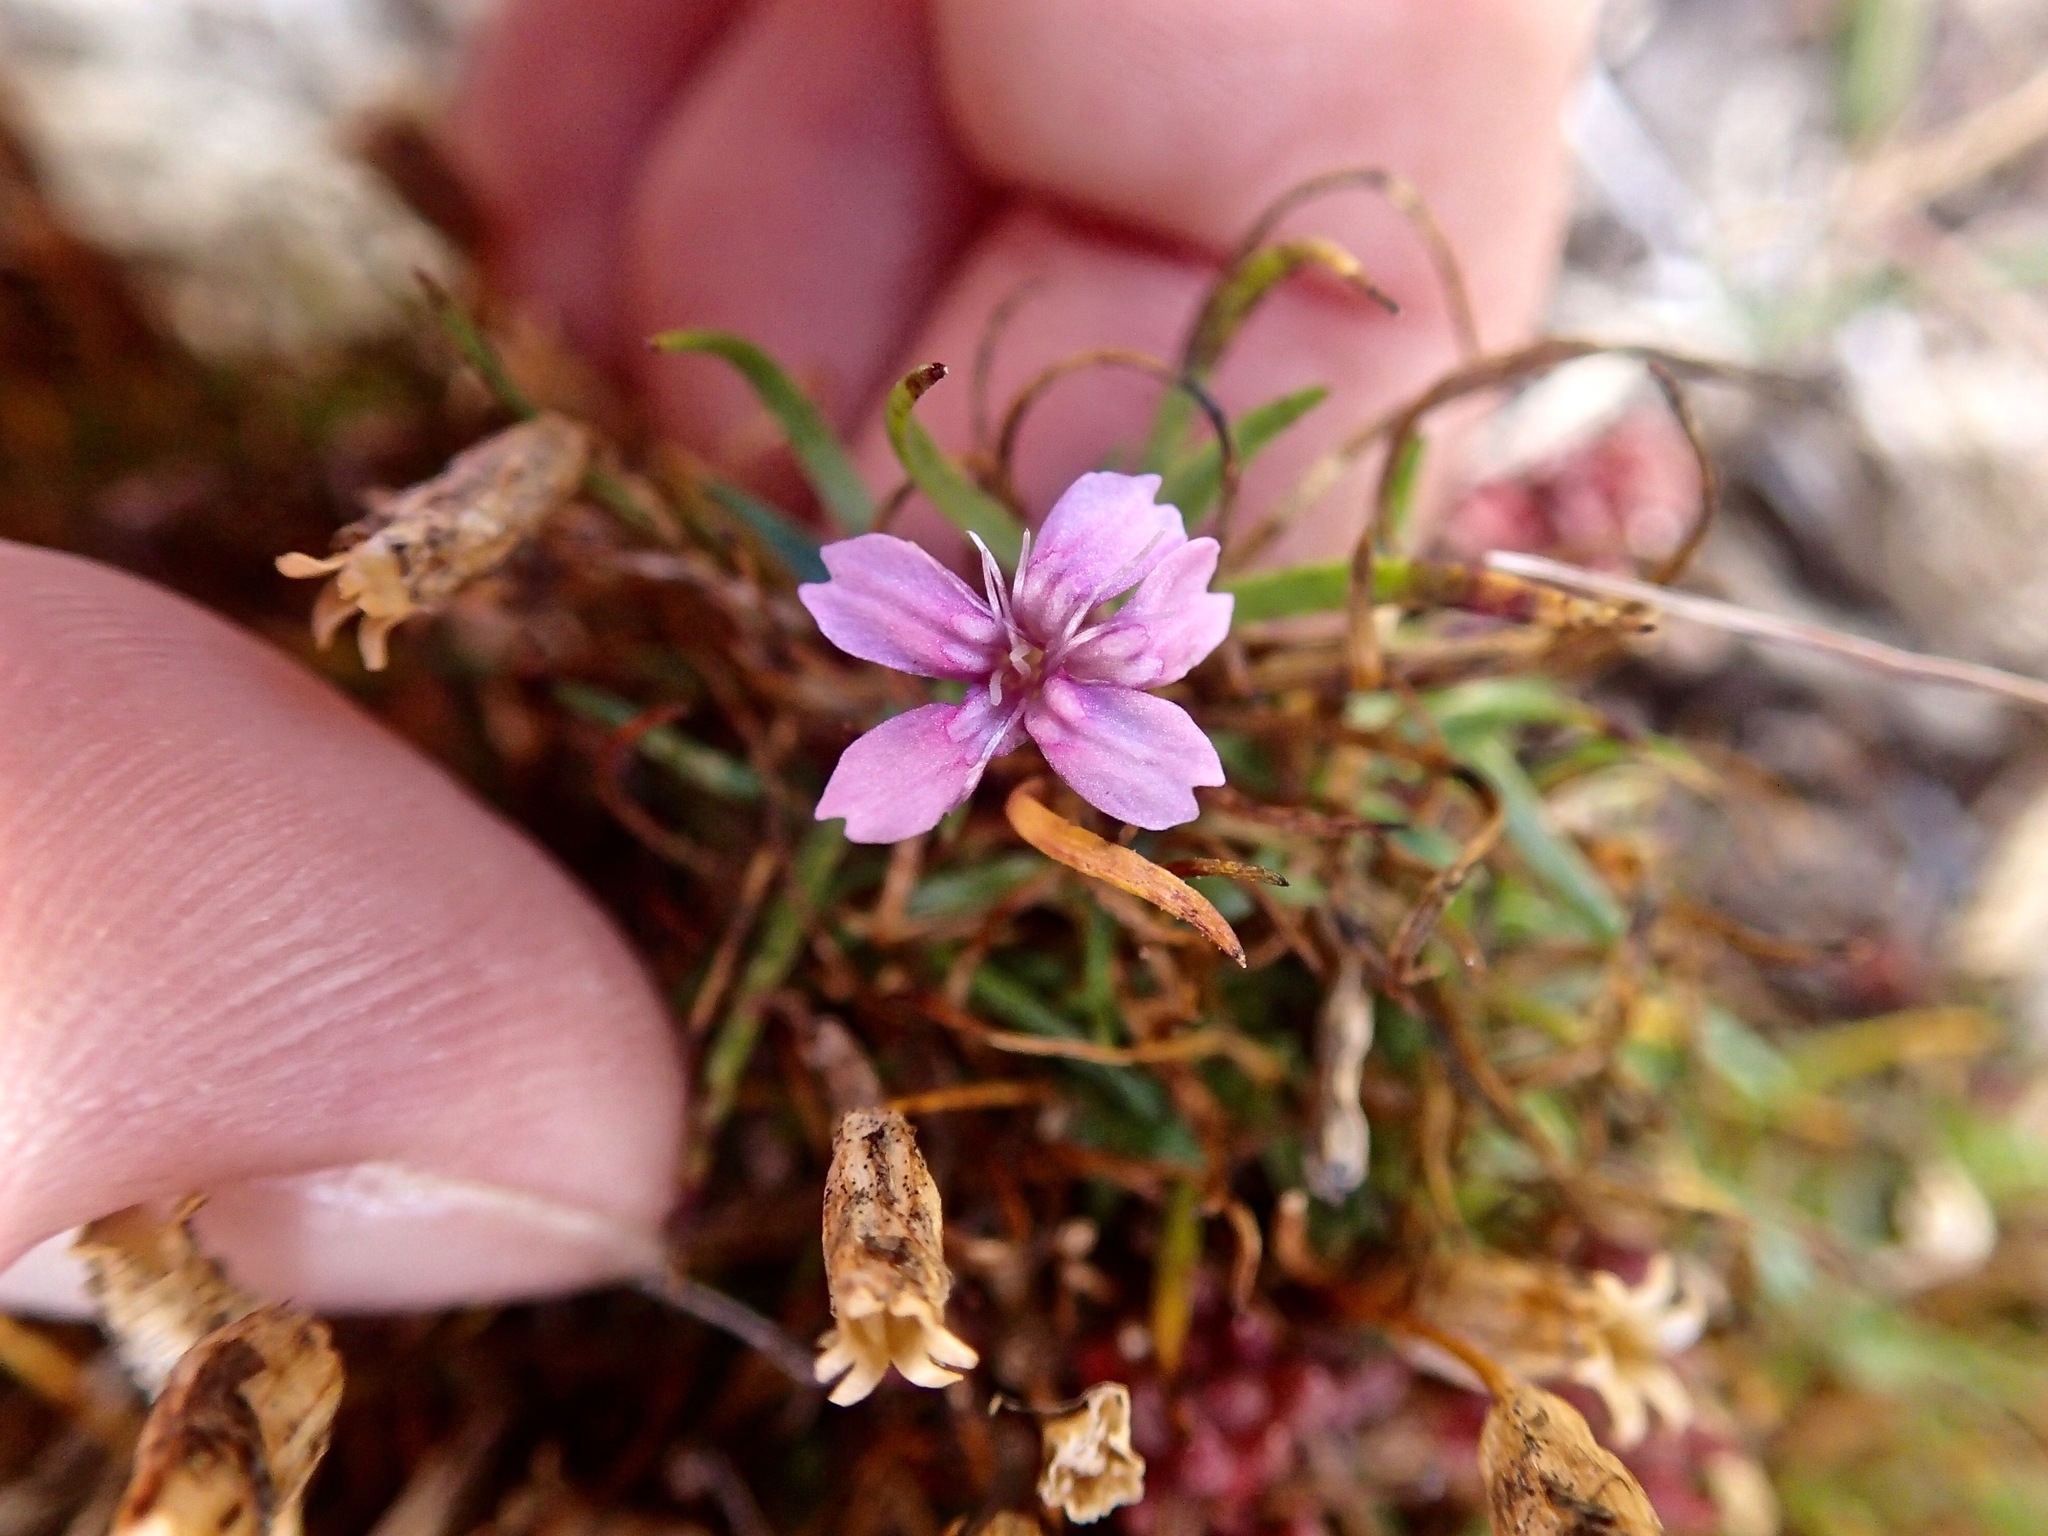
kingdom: Plantae
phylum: Tracheophyta
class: Magnoliopsida
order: Caryophyllales
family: Caryophyllaceae
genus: Silene
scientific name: Silene acaulis
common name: Moss campion
